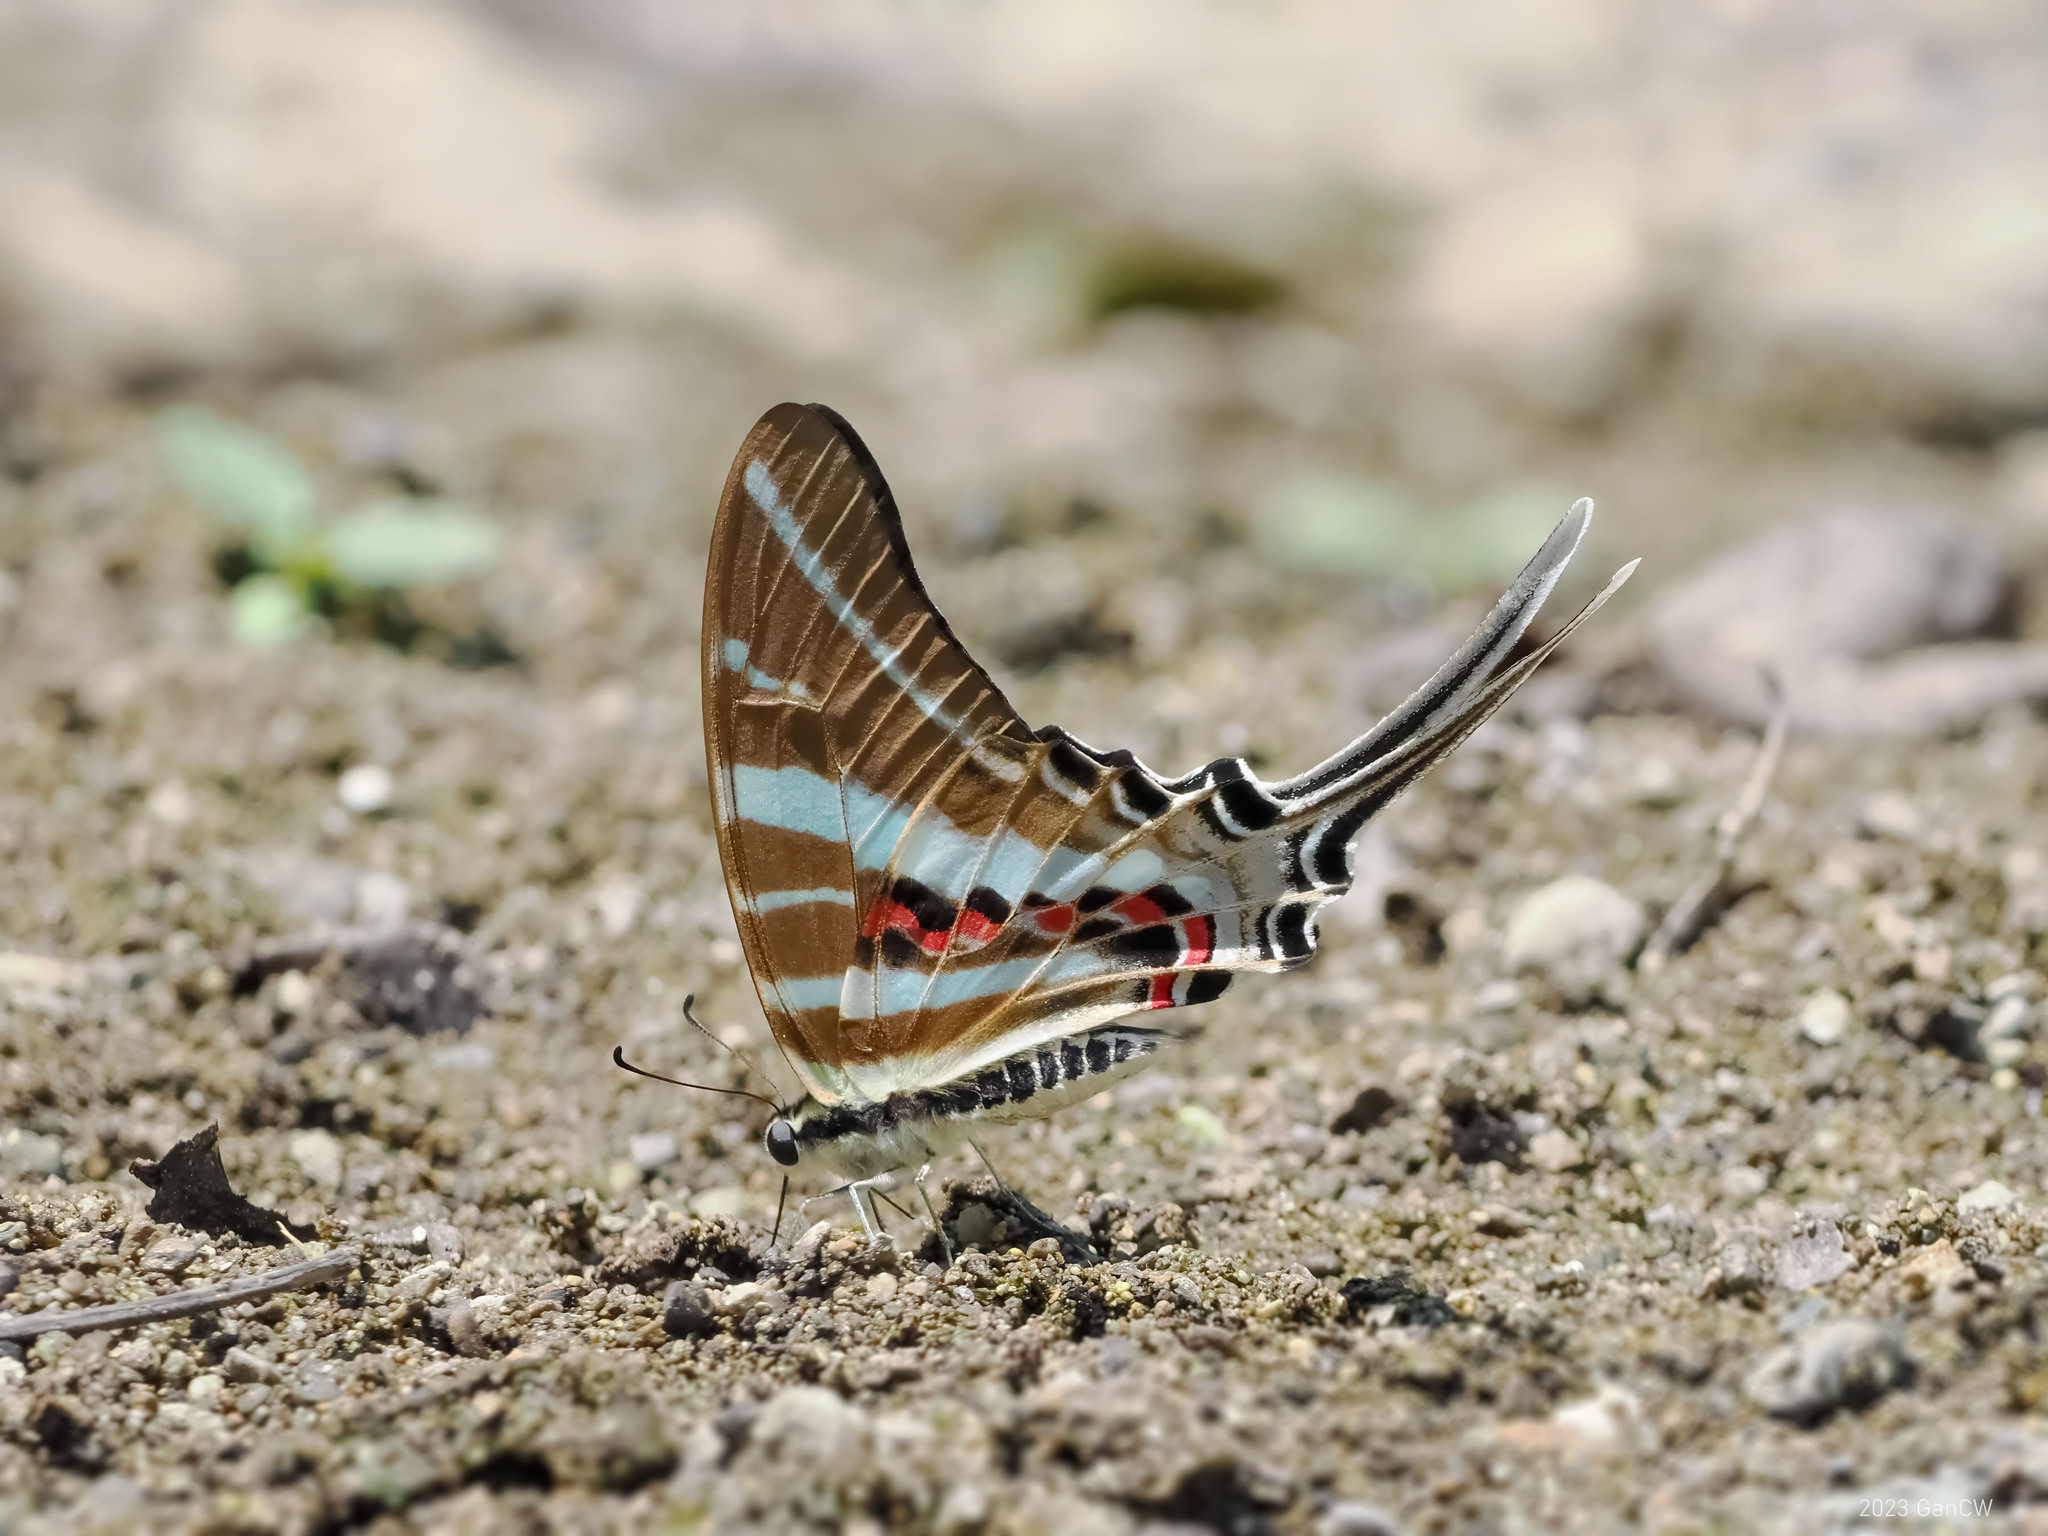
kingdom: Animalia
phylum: Arthropoda
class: Insecta
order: Lepidoptera
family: Papilionidae
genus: Graphium
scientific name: Graphium rhesus
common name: Monkey swordtail
